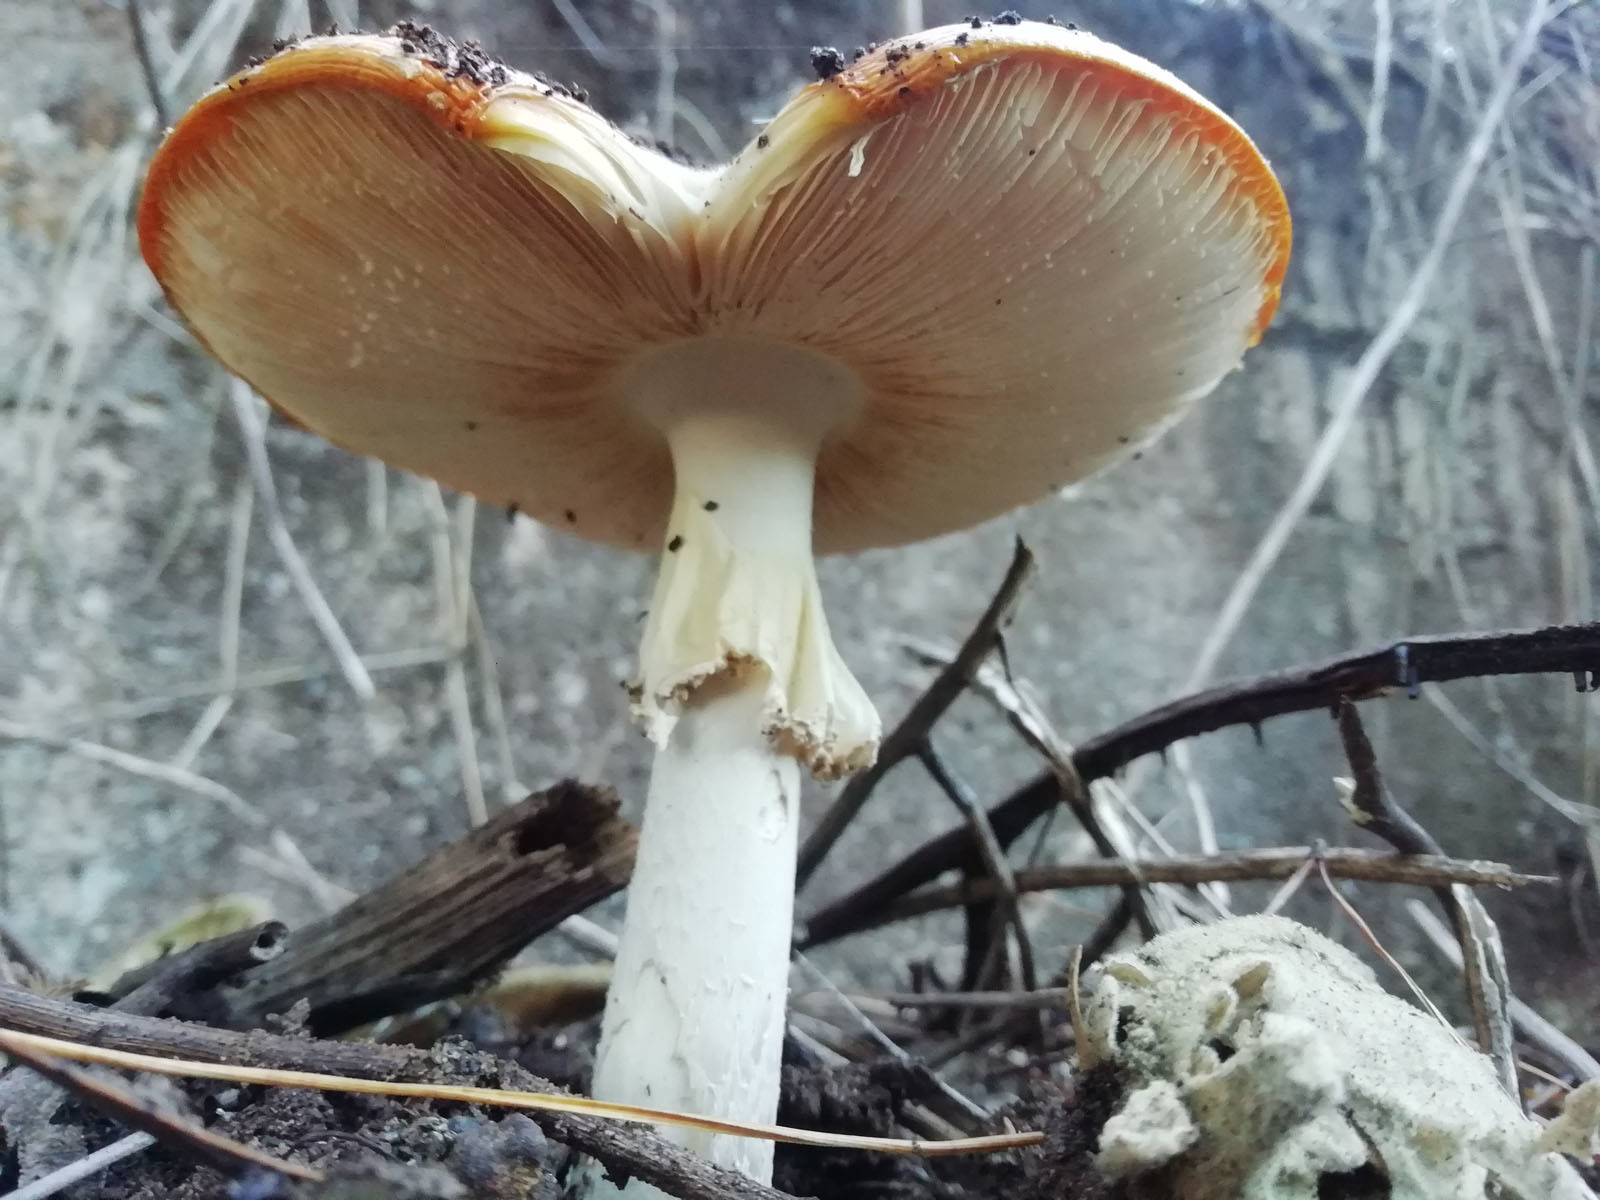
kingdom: Fungi
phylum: Basidiomycota
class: Agaricomycetes
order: Agaricales
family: Amanitaceae
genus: Amanita
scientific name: Amanita muscaria
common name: Fly agaric
